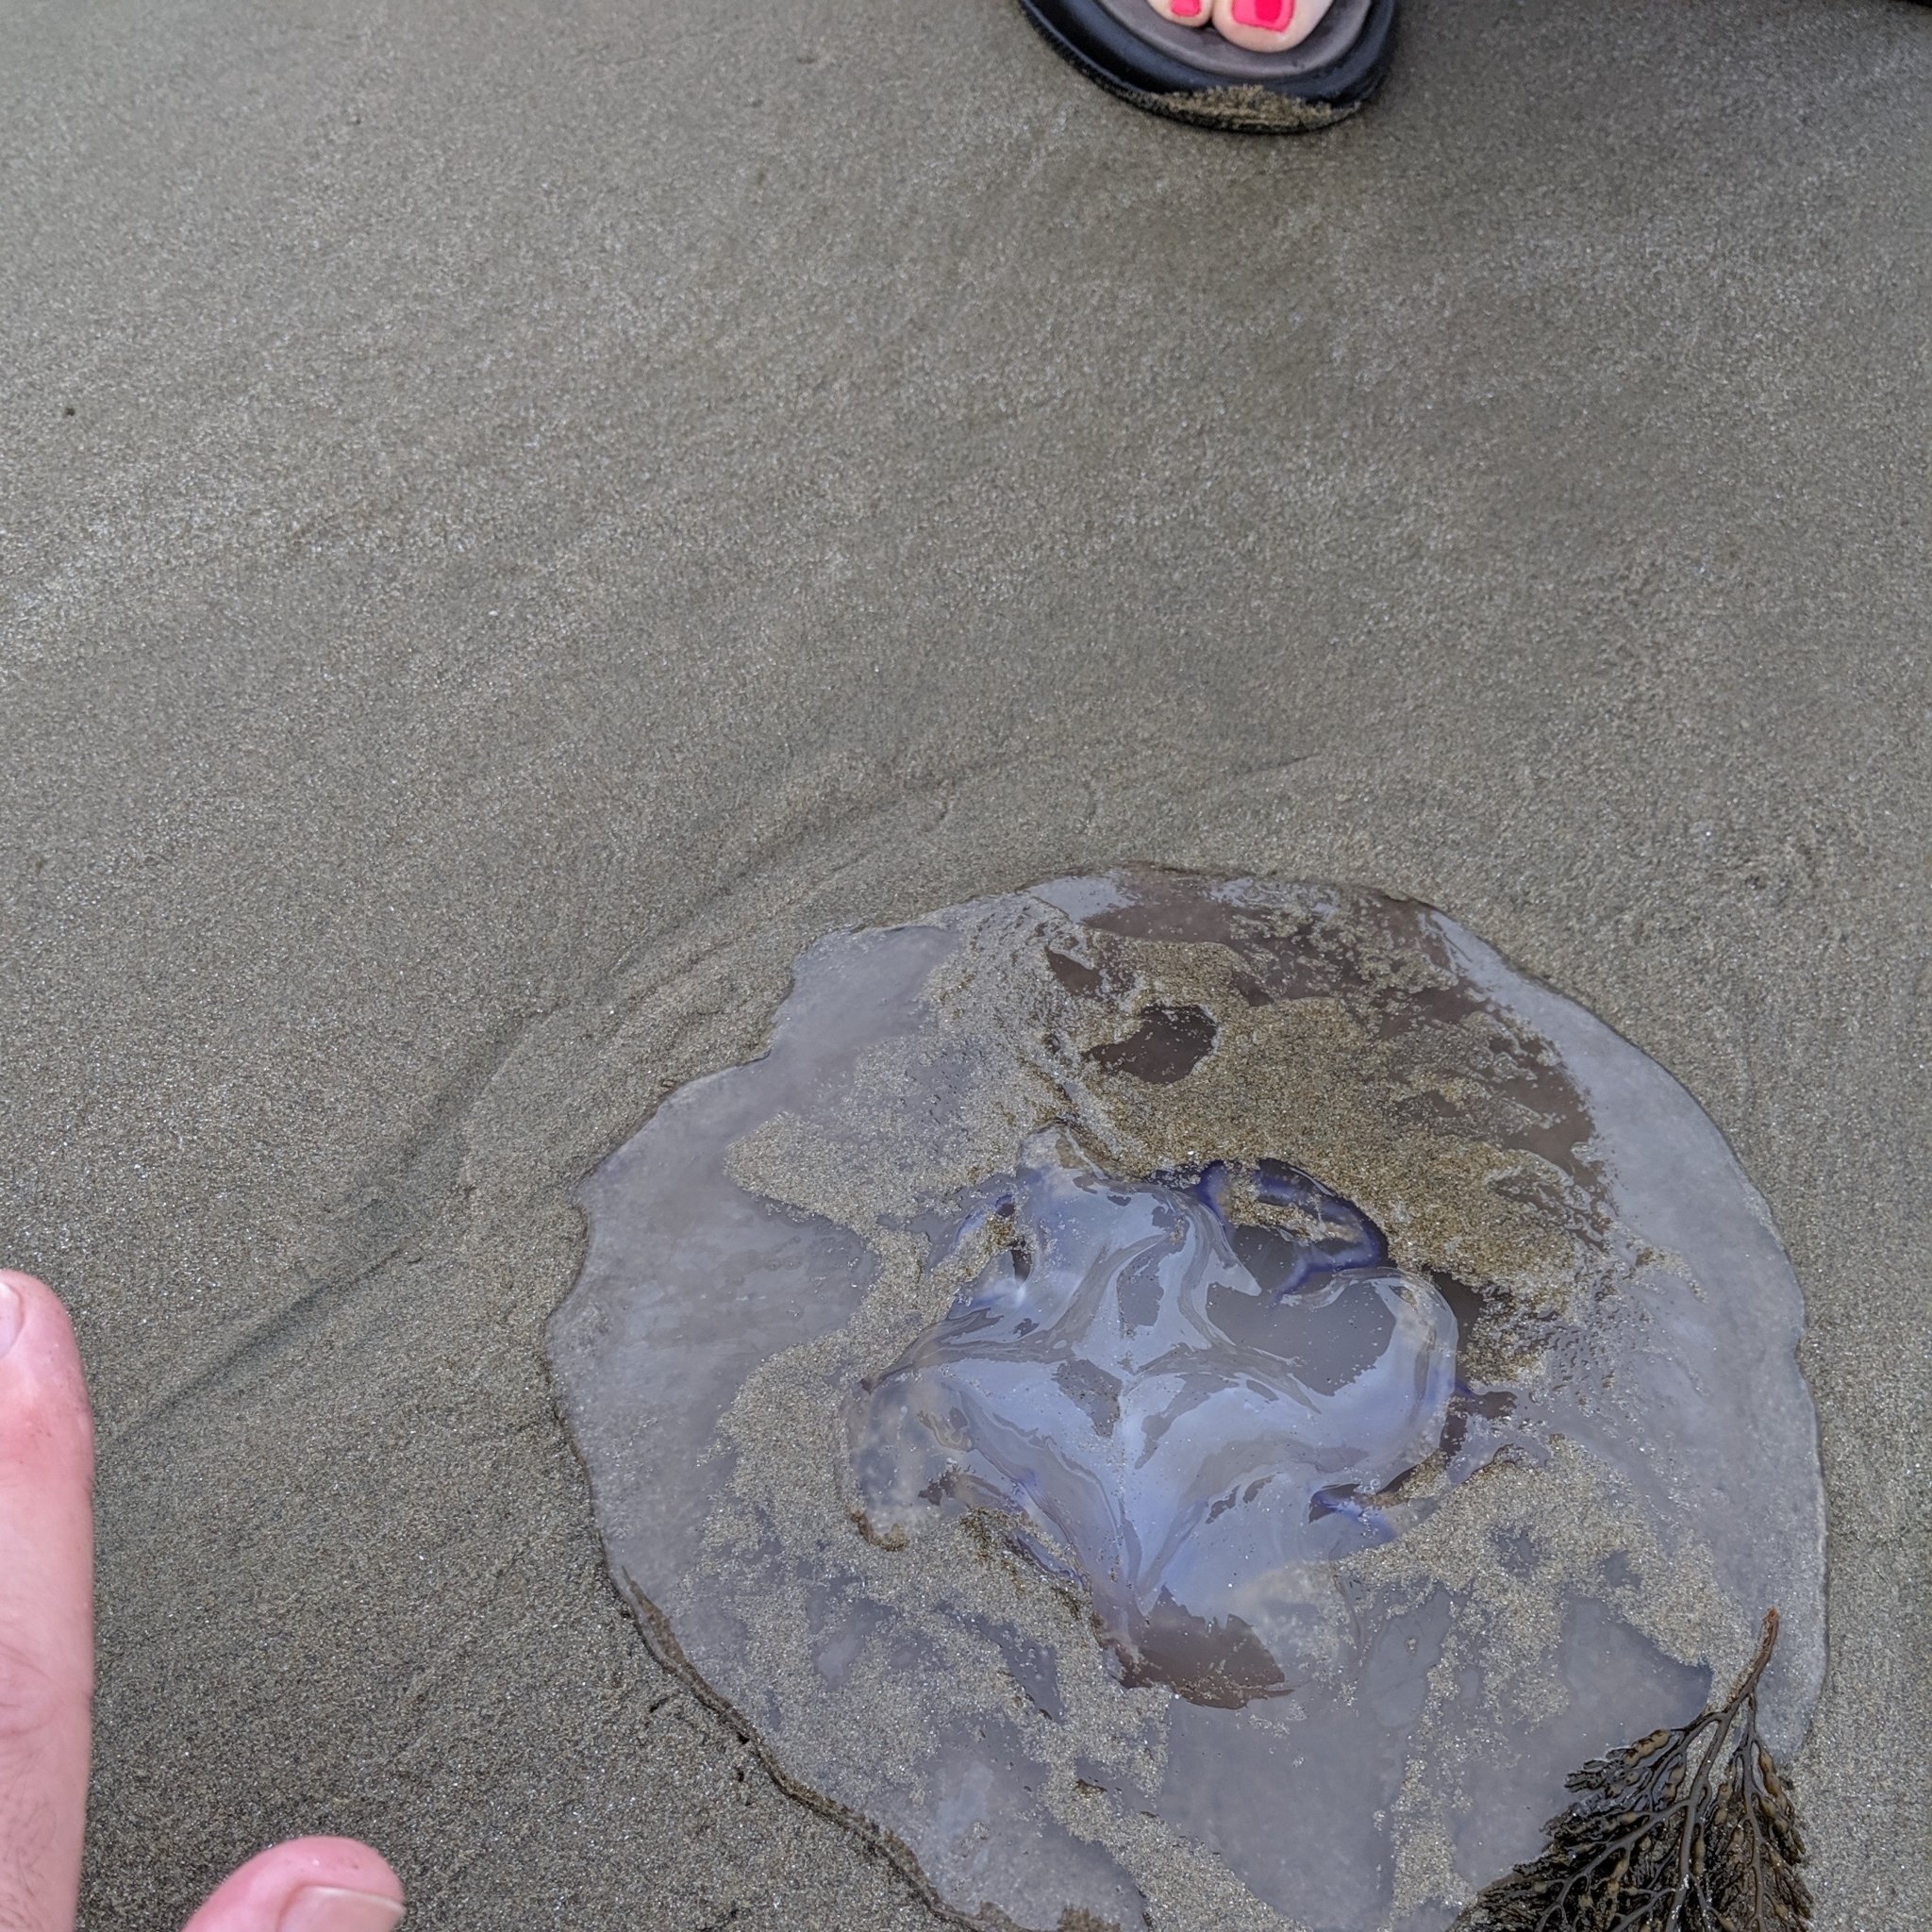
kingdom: Animalia
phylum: Cnidaria
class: Scyphozoa
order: Semaeostomeae
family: Ulmaridae
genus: Aurelia
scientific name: Aurelia labiata
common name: Pacific moon jelly
